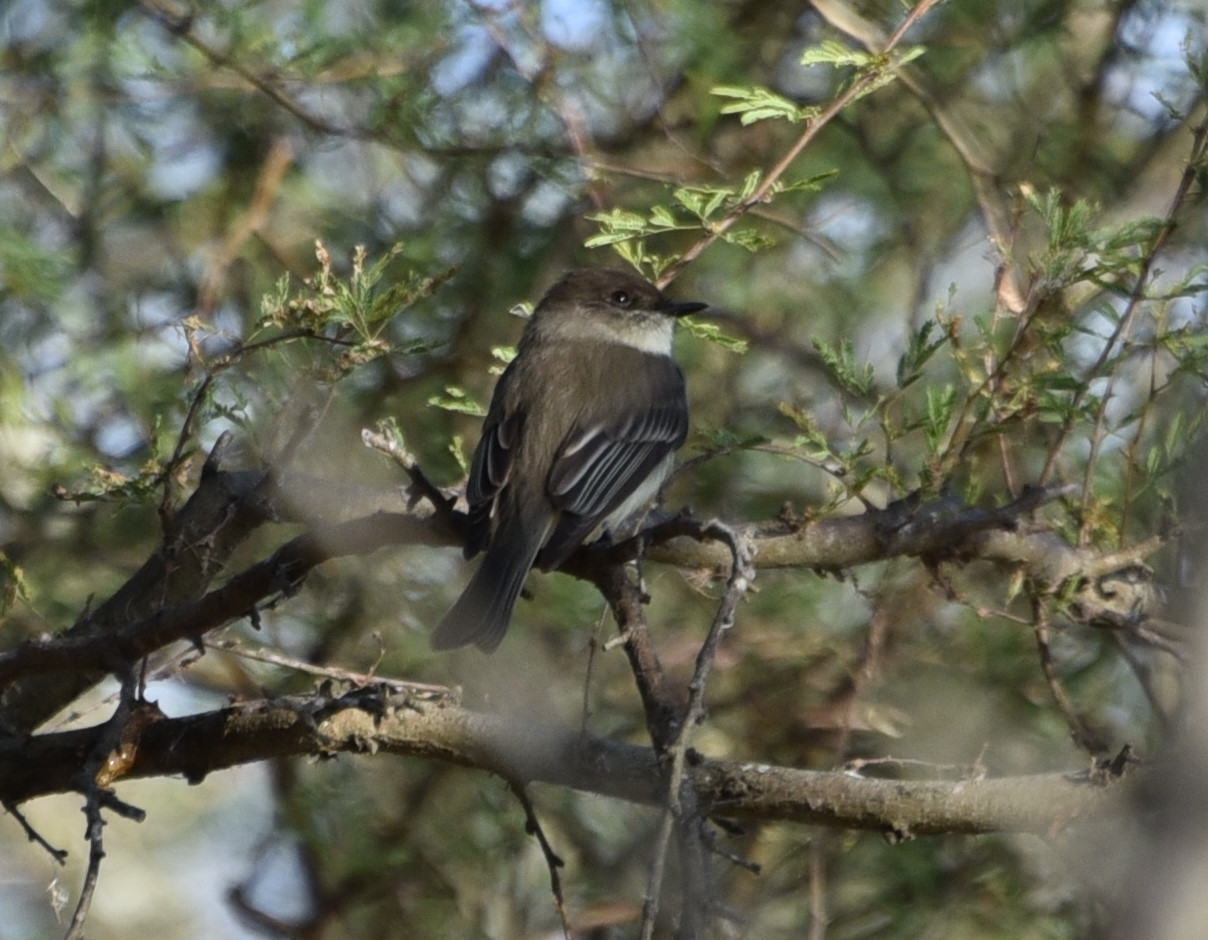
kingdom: Animalia
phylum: Chordata
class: Aves
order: Passeriformes
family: Tyrannidae
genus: Sayornis
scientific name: Sayornis phoebe
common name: Eastern phoebe
